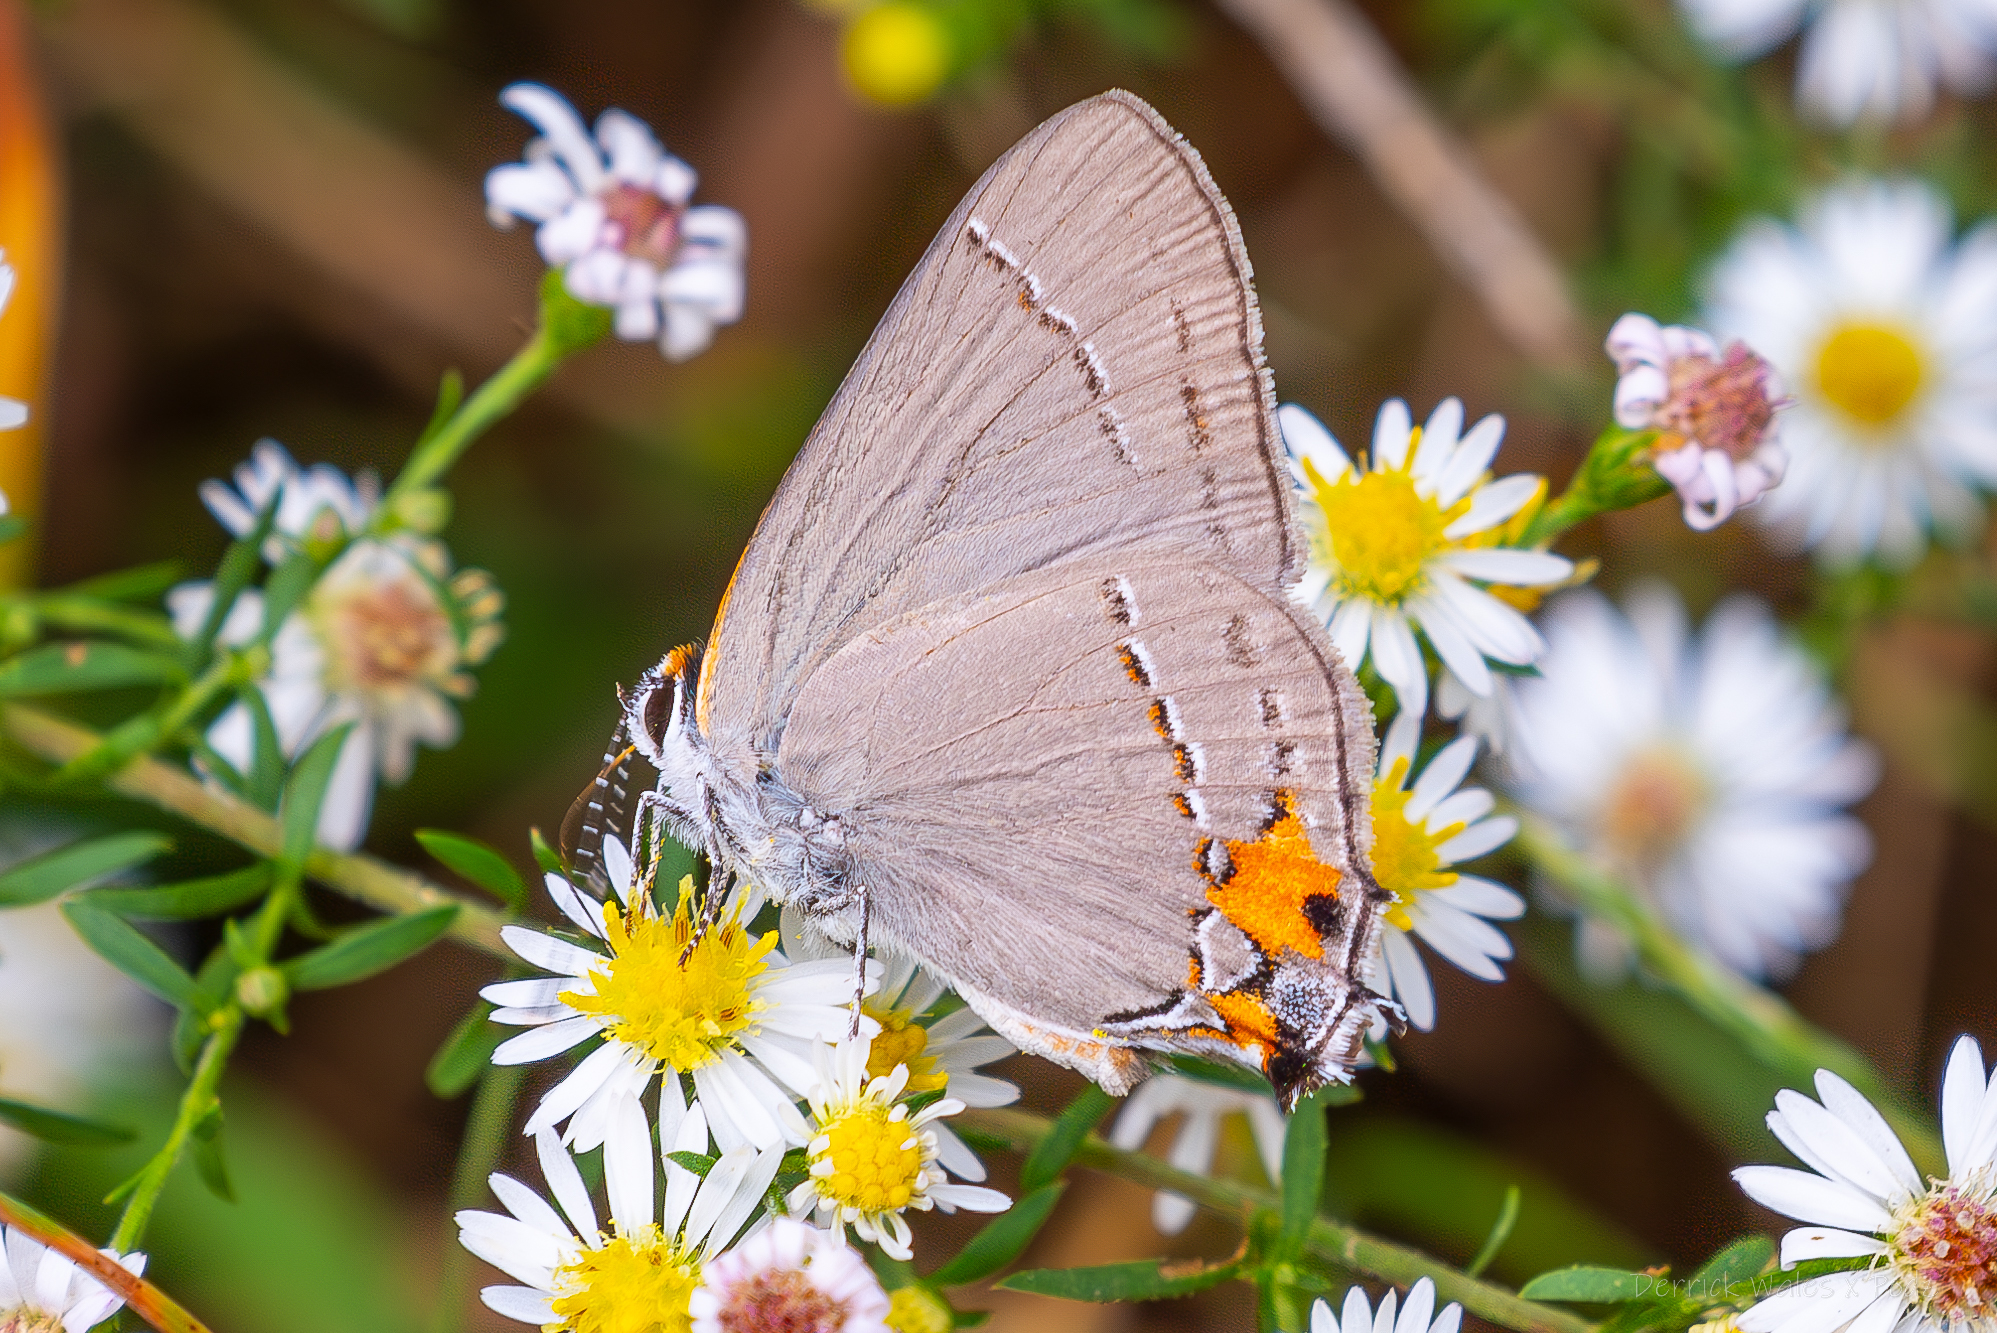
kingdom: Animalia
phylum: Arthropoda
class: Insecta
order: Lepidoptera
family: Lycaenidae
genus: Strymon
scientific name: Strymon melinus
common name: Gray hairstreak
